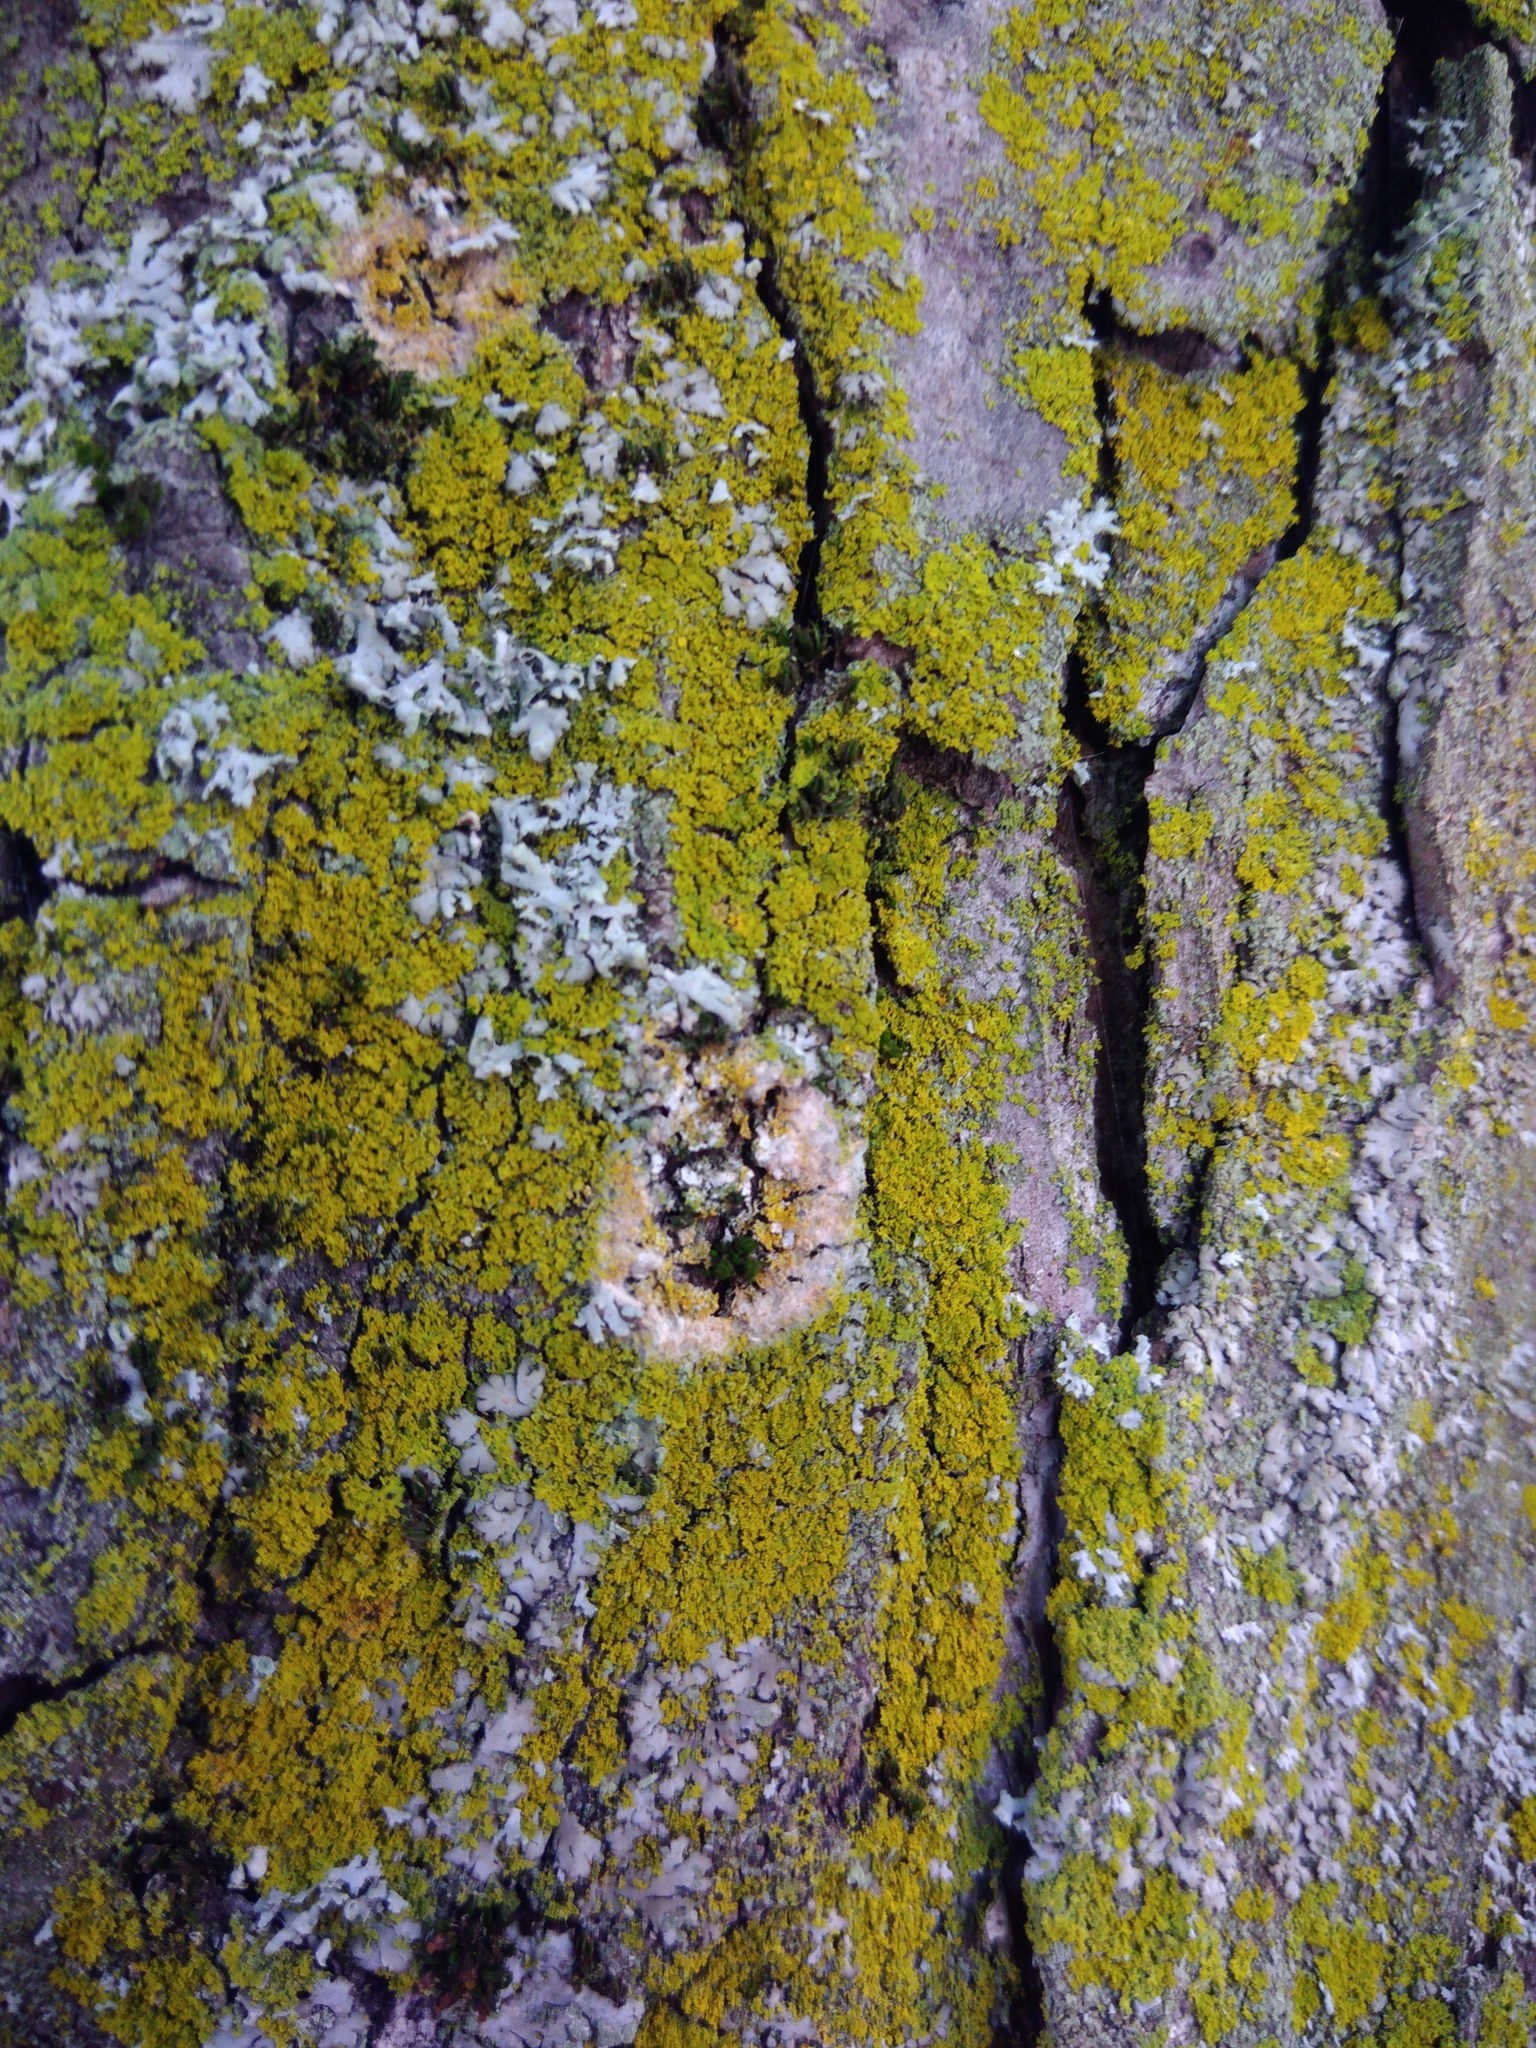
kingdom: Fungi
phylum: Basidiomycota
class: Agaricomycetes
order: Atheliales
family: Atheliaceae
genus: Athelia
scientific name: Athelia arachnoidea
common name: Candelabra duster
